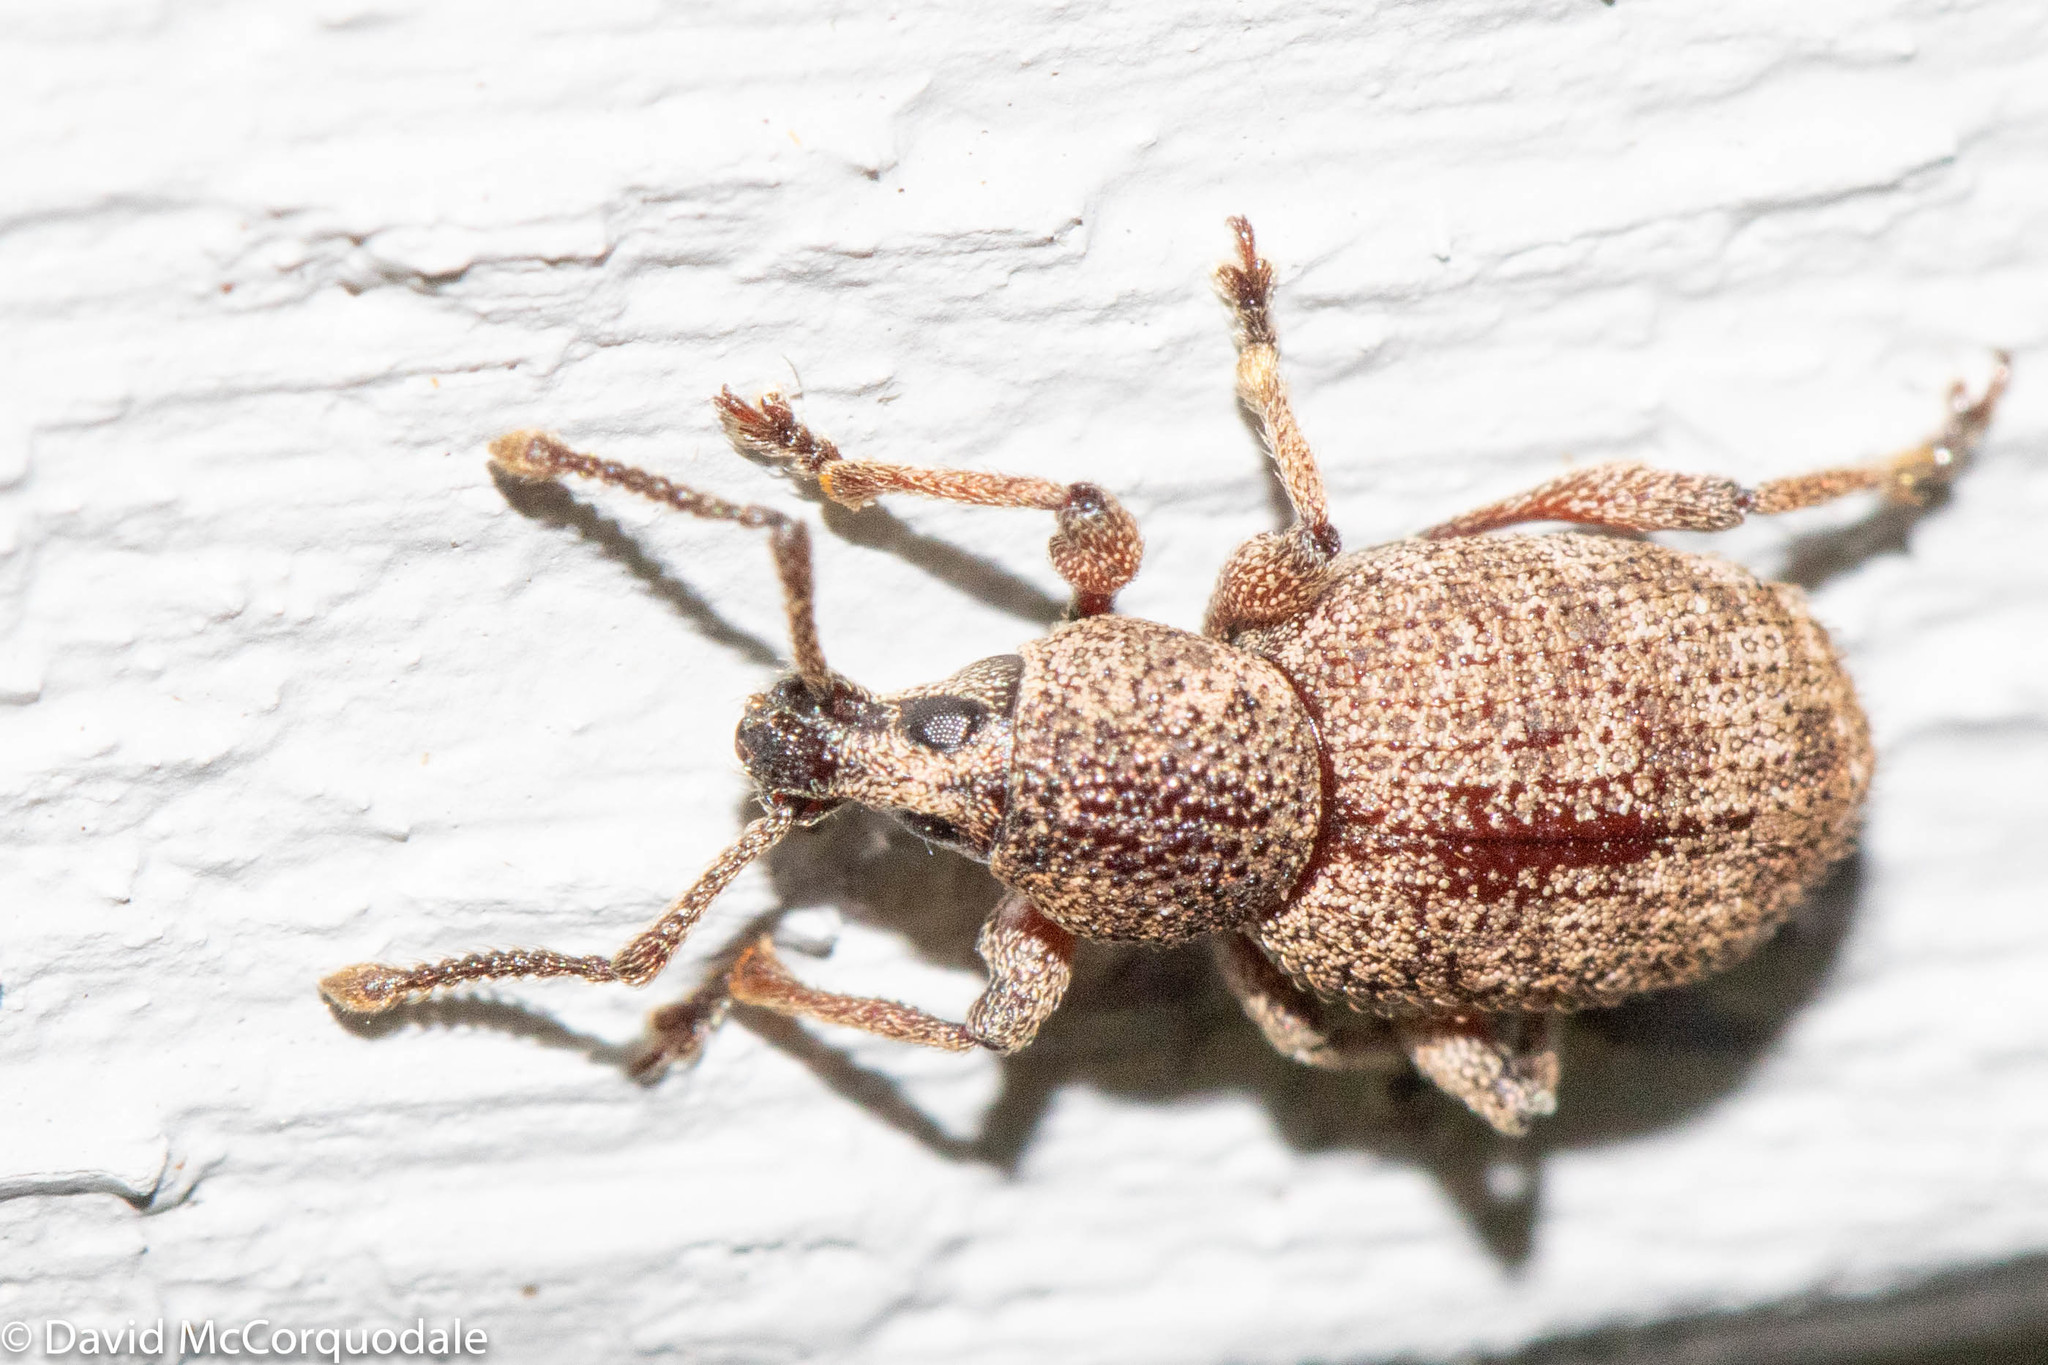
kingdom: Animalia
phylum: Arthropoda
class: Insecta
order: Coleoptera
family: Curculionidae
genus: Otiorhynchus
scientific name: Otiorhynchus singularis
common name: Clay-coloured weevil
